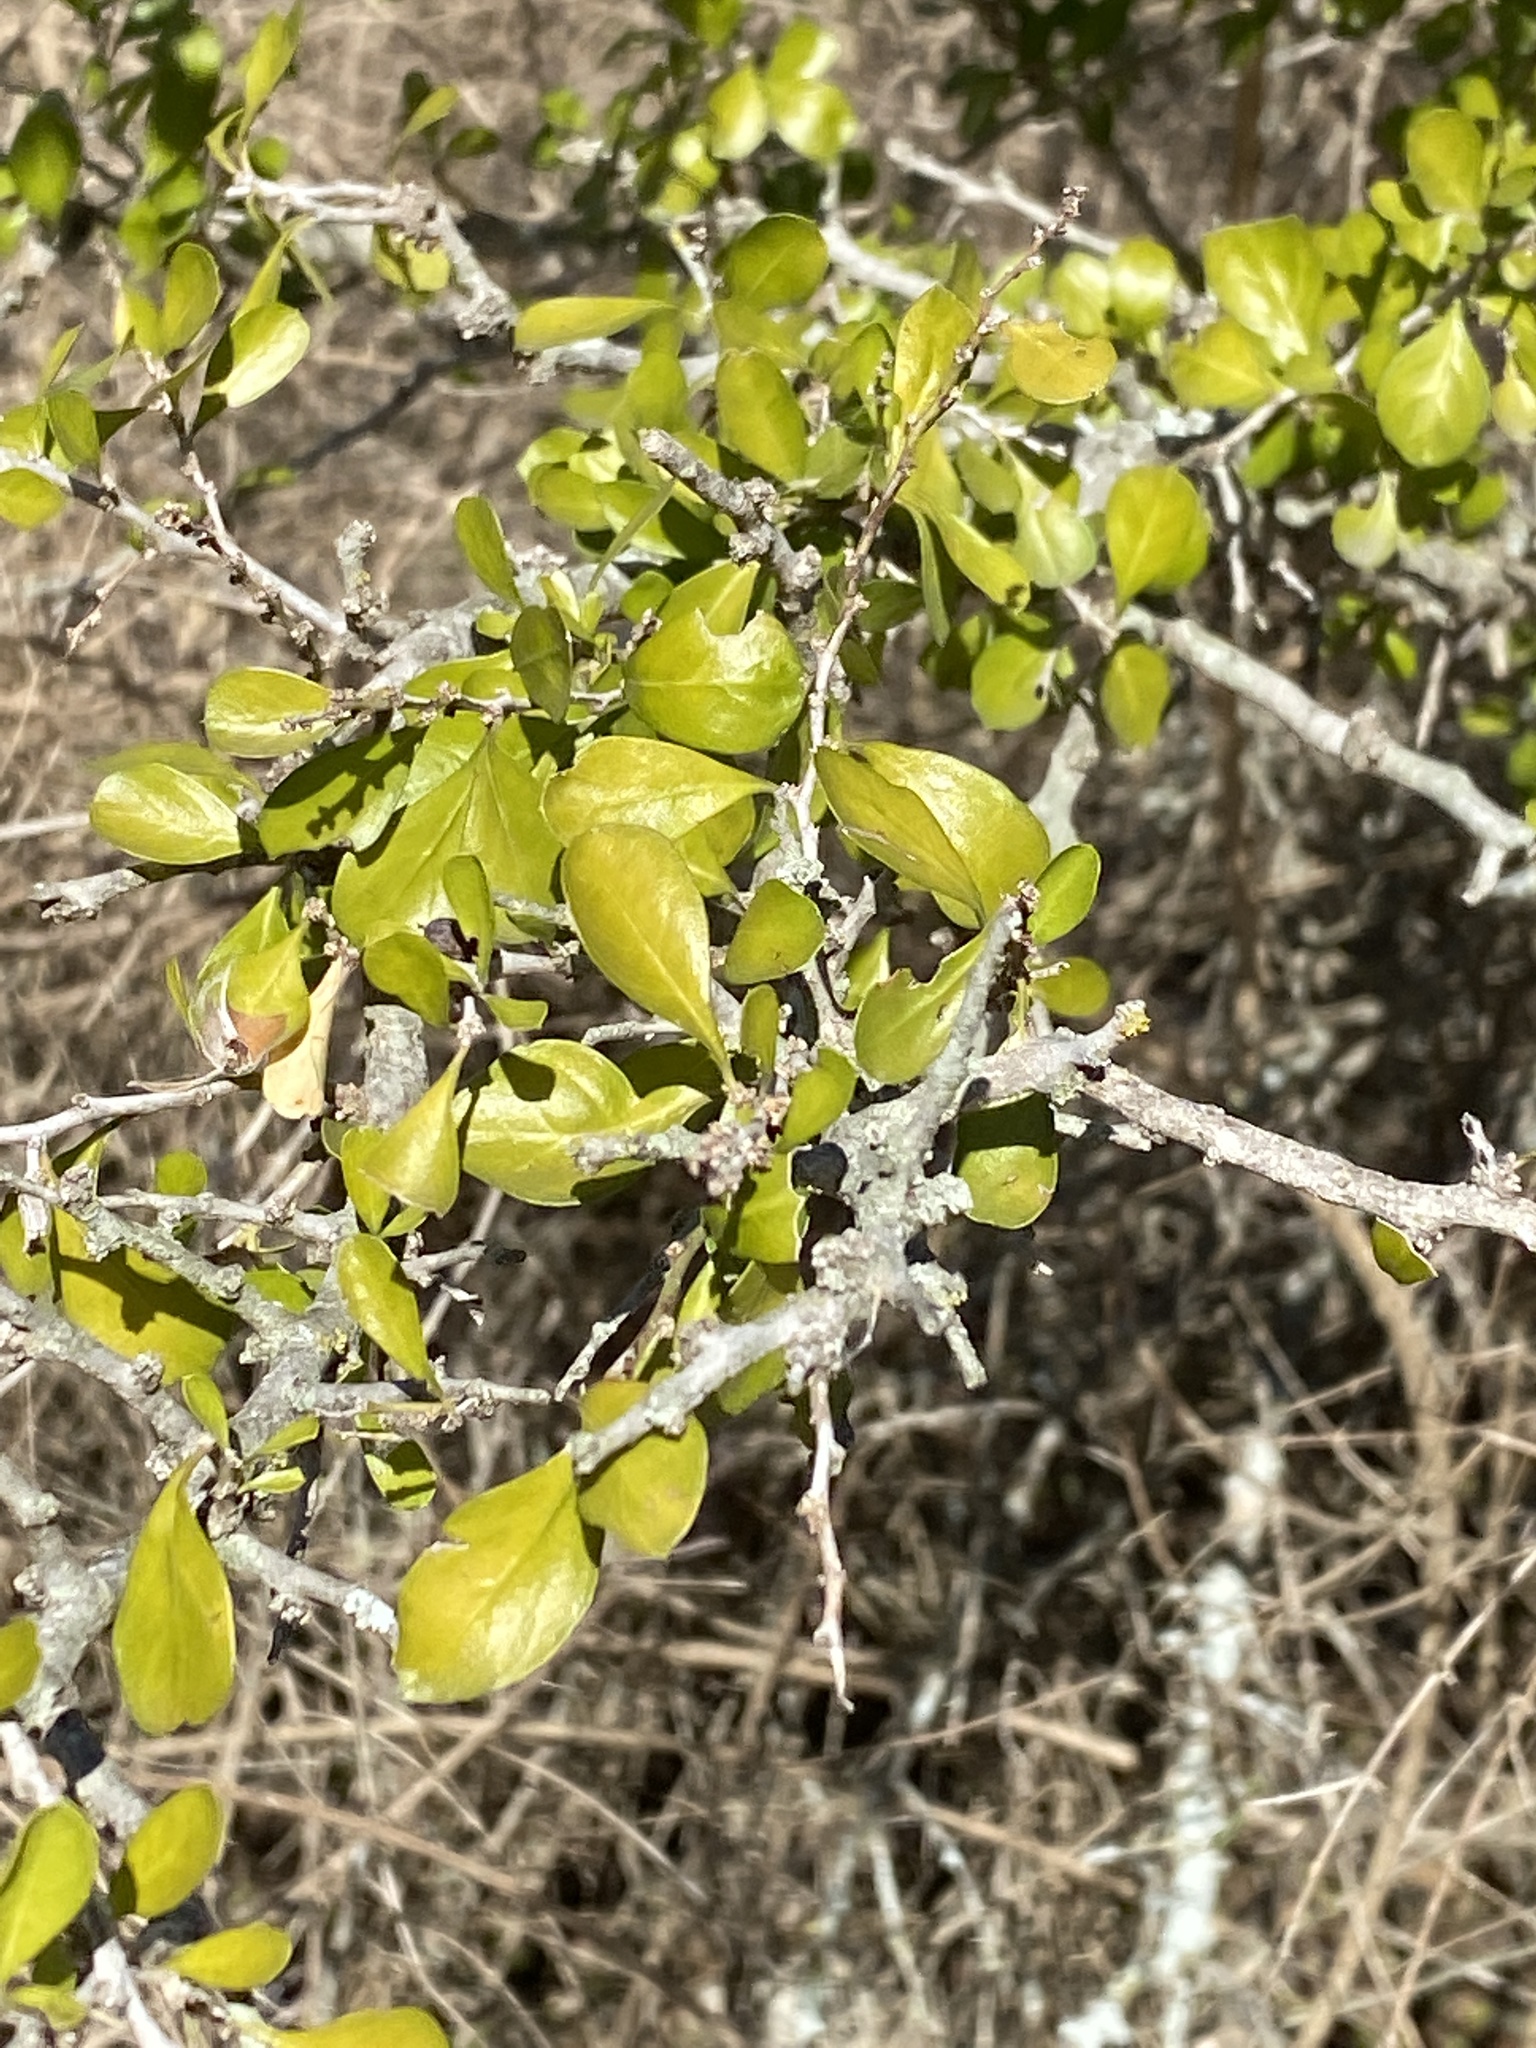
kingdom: Plantae
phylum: Tracheophyta
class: Magnoliopsida
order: Rosales
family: Rhamnaceae
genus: Condalia
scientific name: Condalia hookeri
